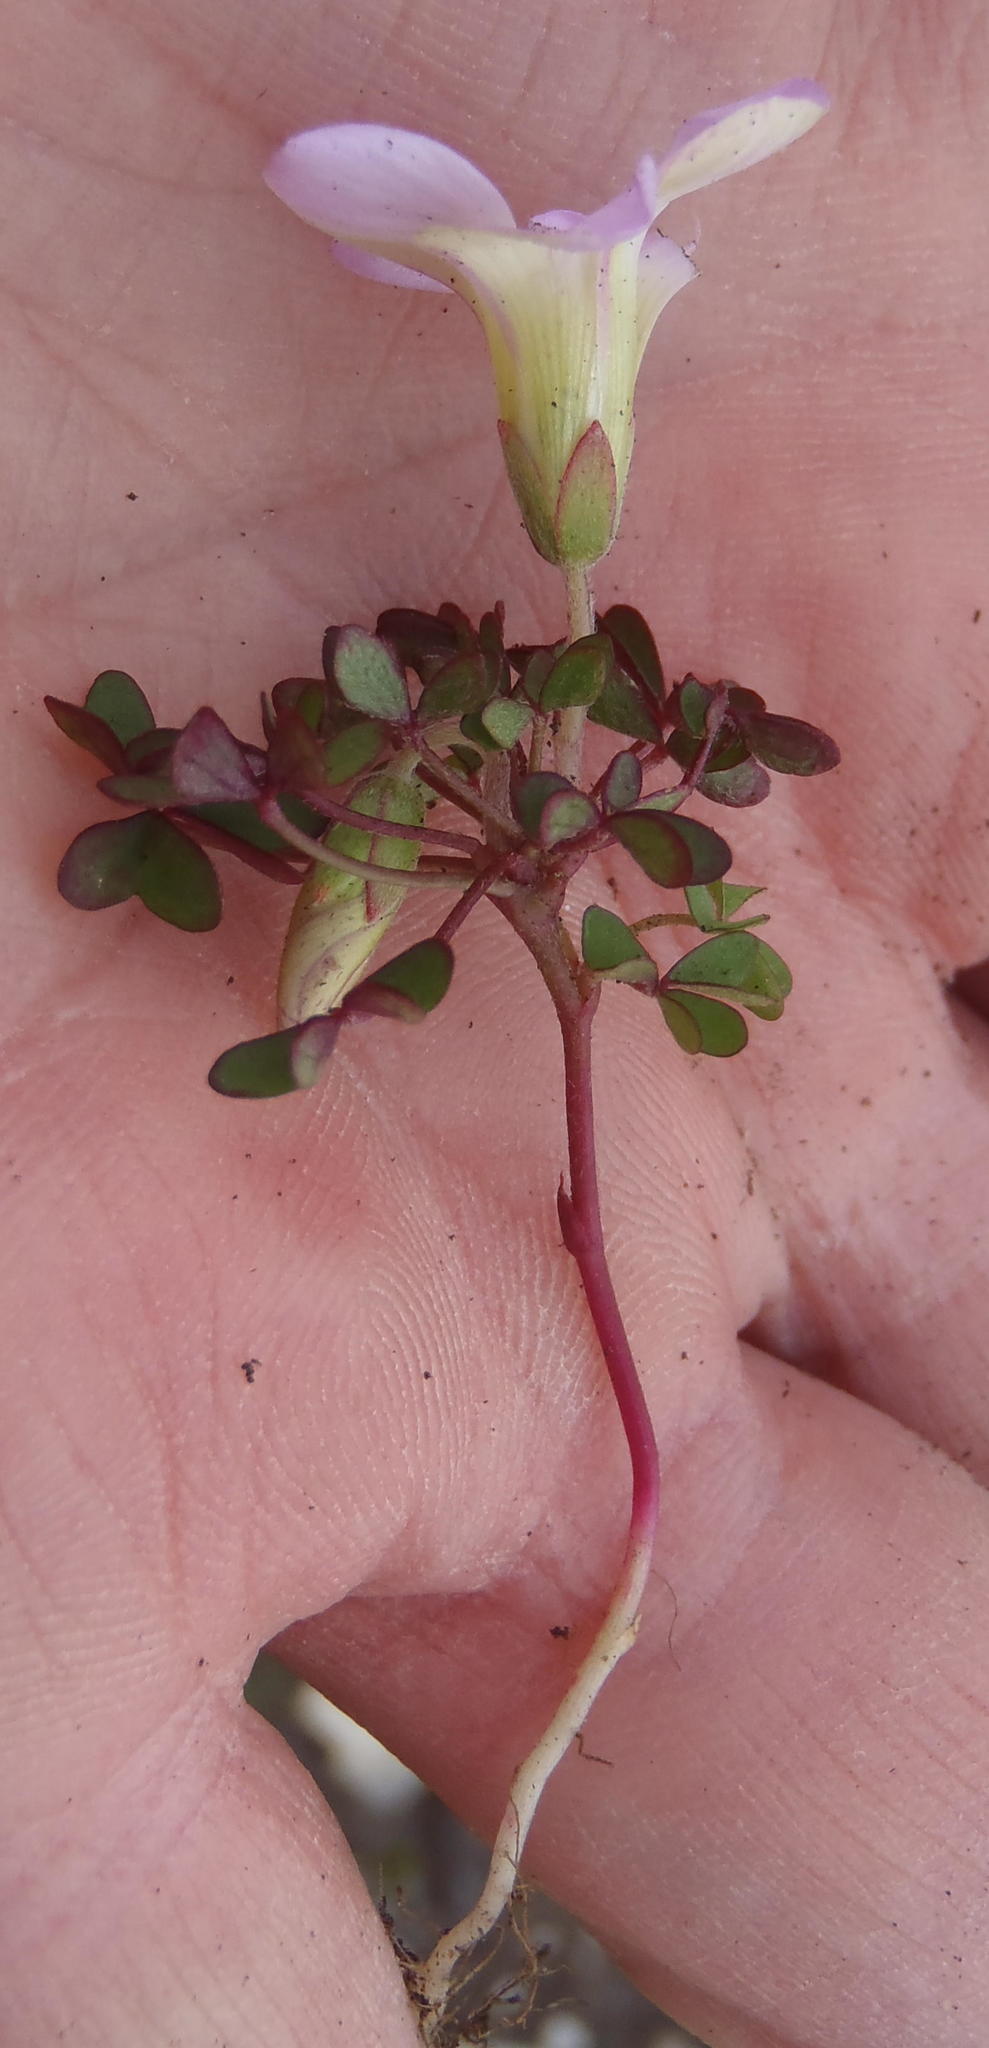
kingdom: Plantae
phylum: Tracheophyta
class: Magnoliopsida
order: Oxalidales
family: Oxalidaceae
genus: Oxalis
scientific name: Oxalis heterophylla
